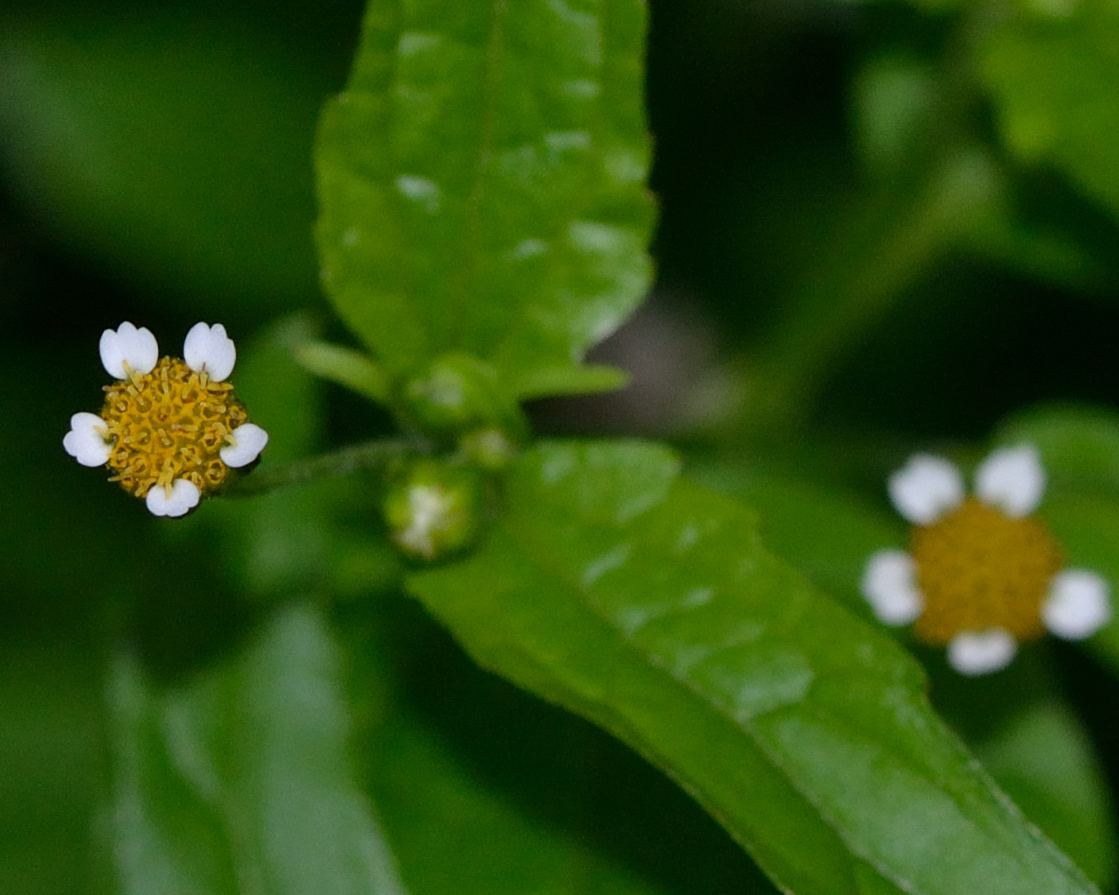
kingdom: Plantae
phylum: Tracheophyta
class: Magnoliopsida
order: Asterales
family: Asteraceae
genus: Galinsoga
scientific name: Galinsoga parviflora
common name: Gallant soldier
